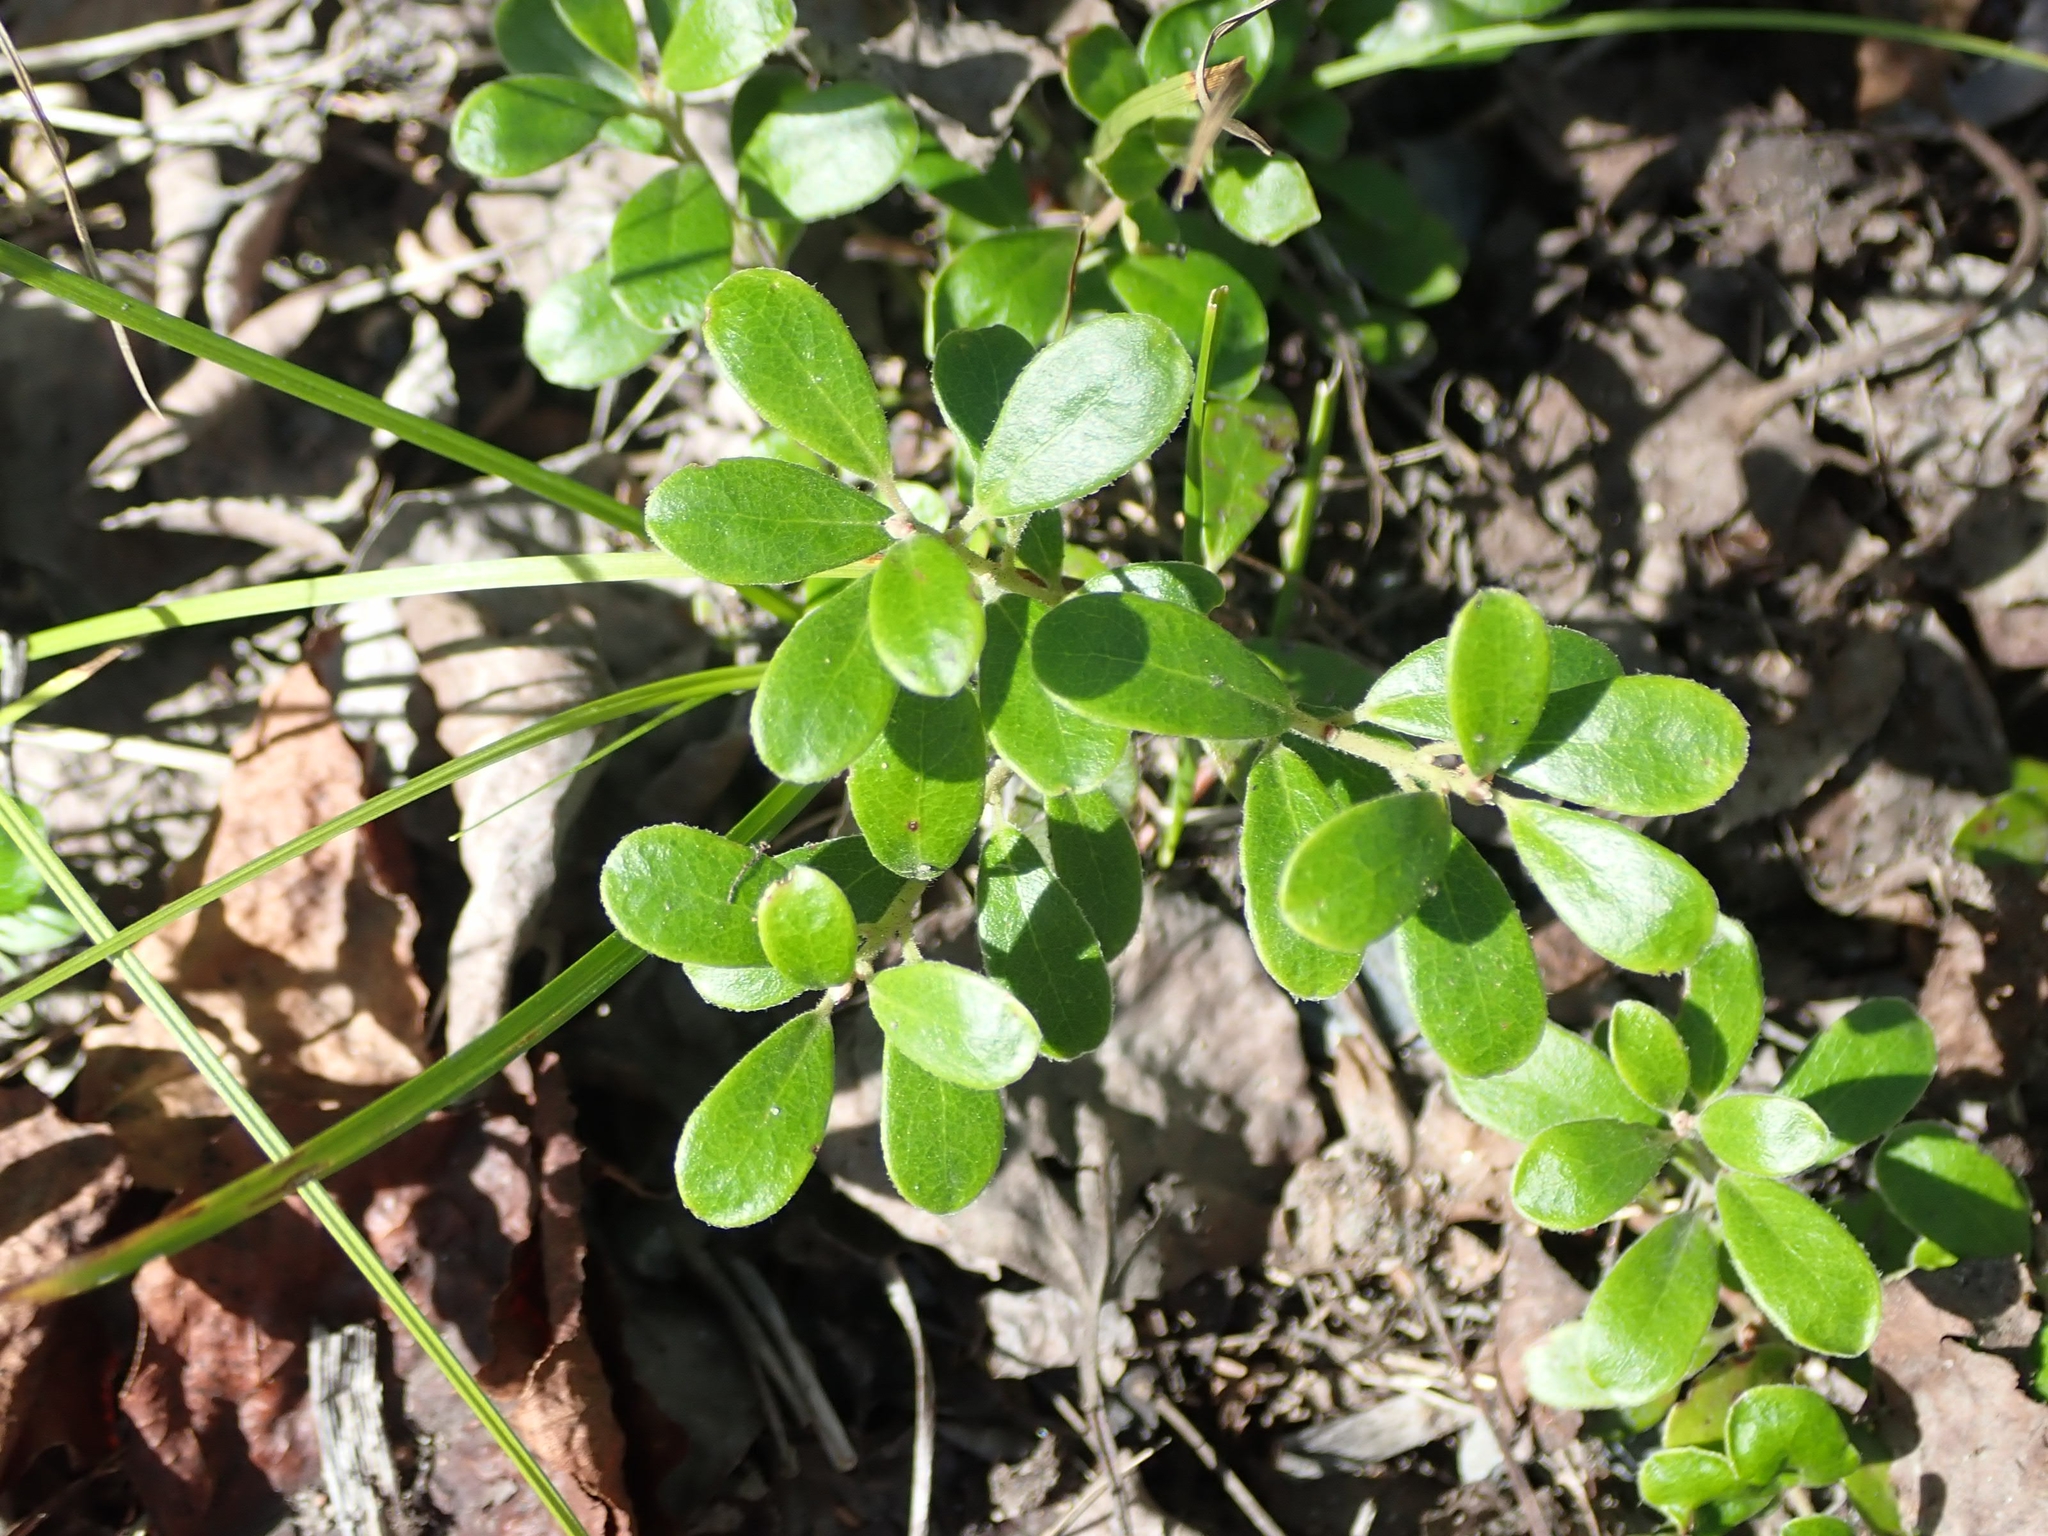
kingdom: Plantae
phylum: Tracheophyta
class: Magnoliopsida
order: Ericales
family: Ericaceae
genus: Arctostaphylos
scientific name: Arctostaphylos uva-ursi
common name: Bearberry
